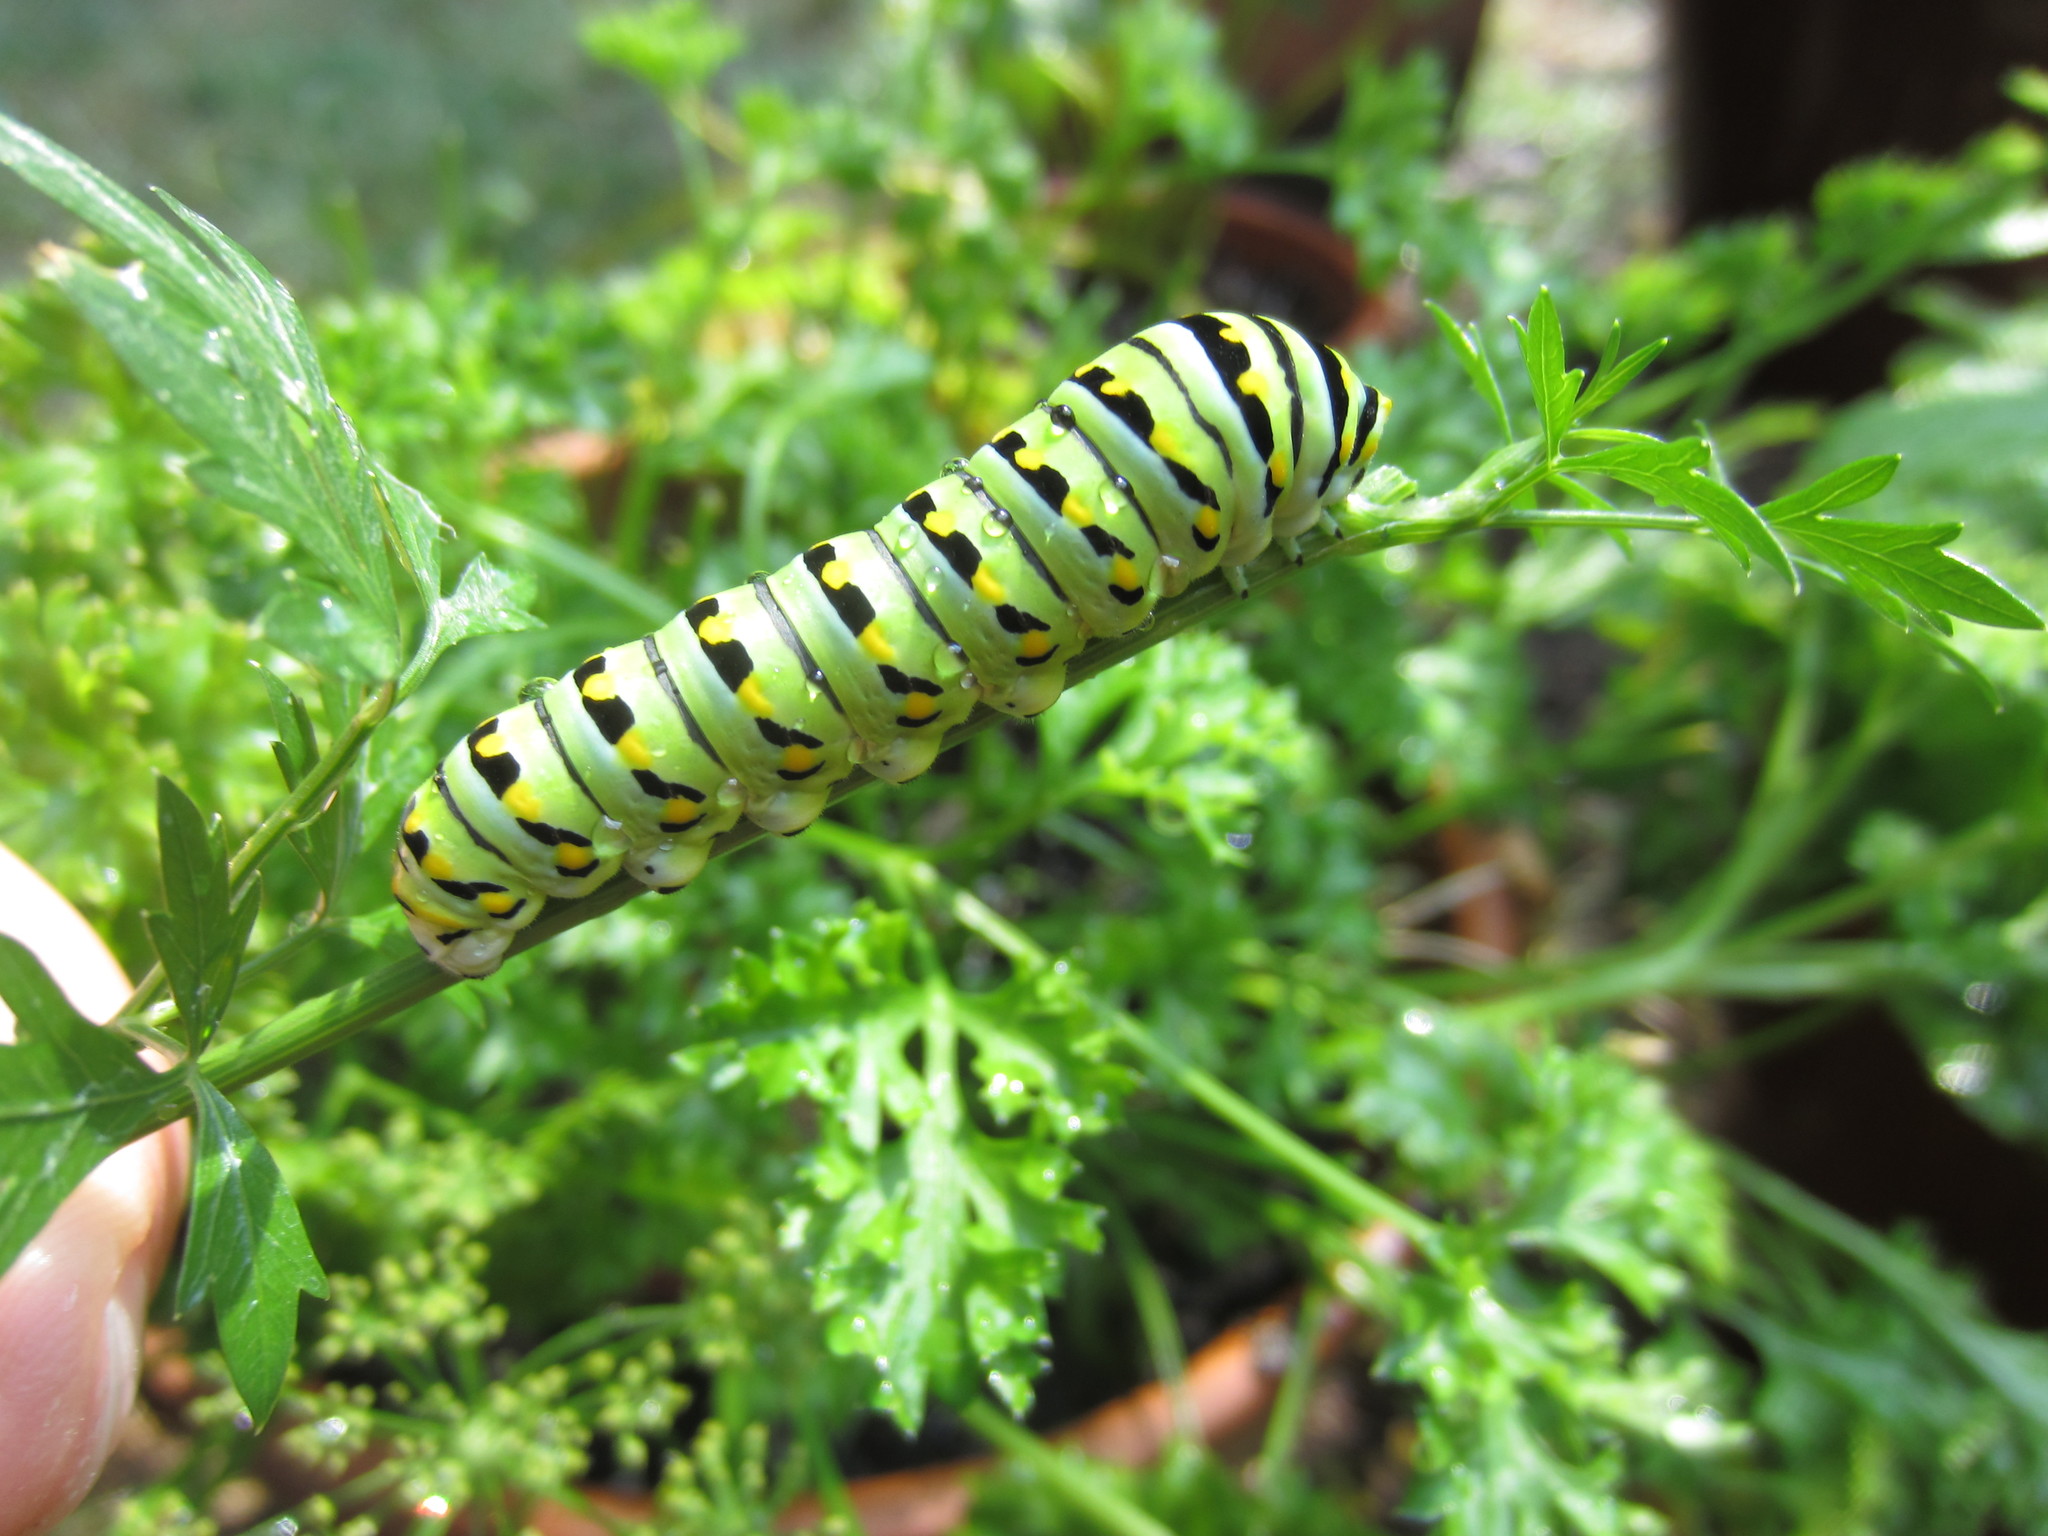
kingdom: Animalia
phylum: Arthropoda
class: Insecta
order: Lepidoptera
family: Papilionidae
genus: Papilio
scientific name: Papilio polyxenes
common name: Black swallowtail
